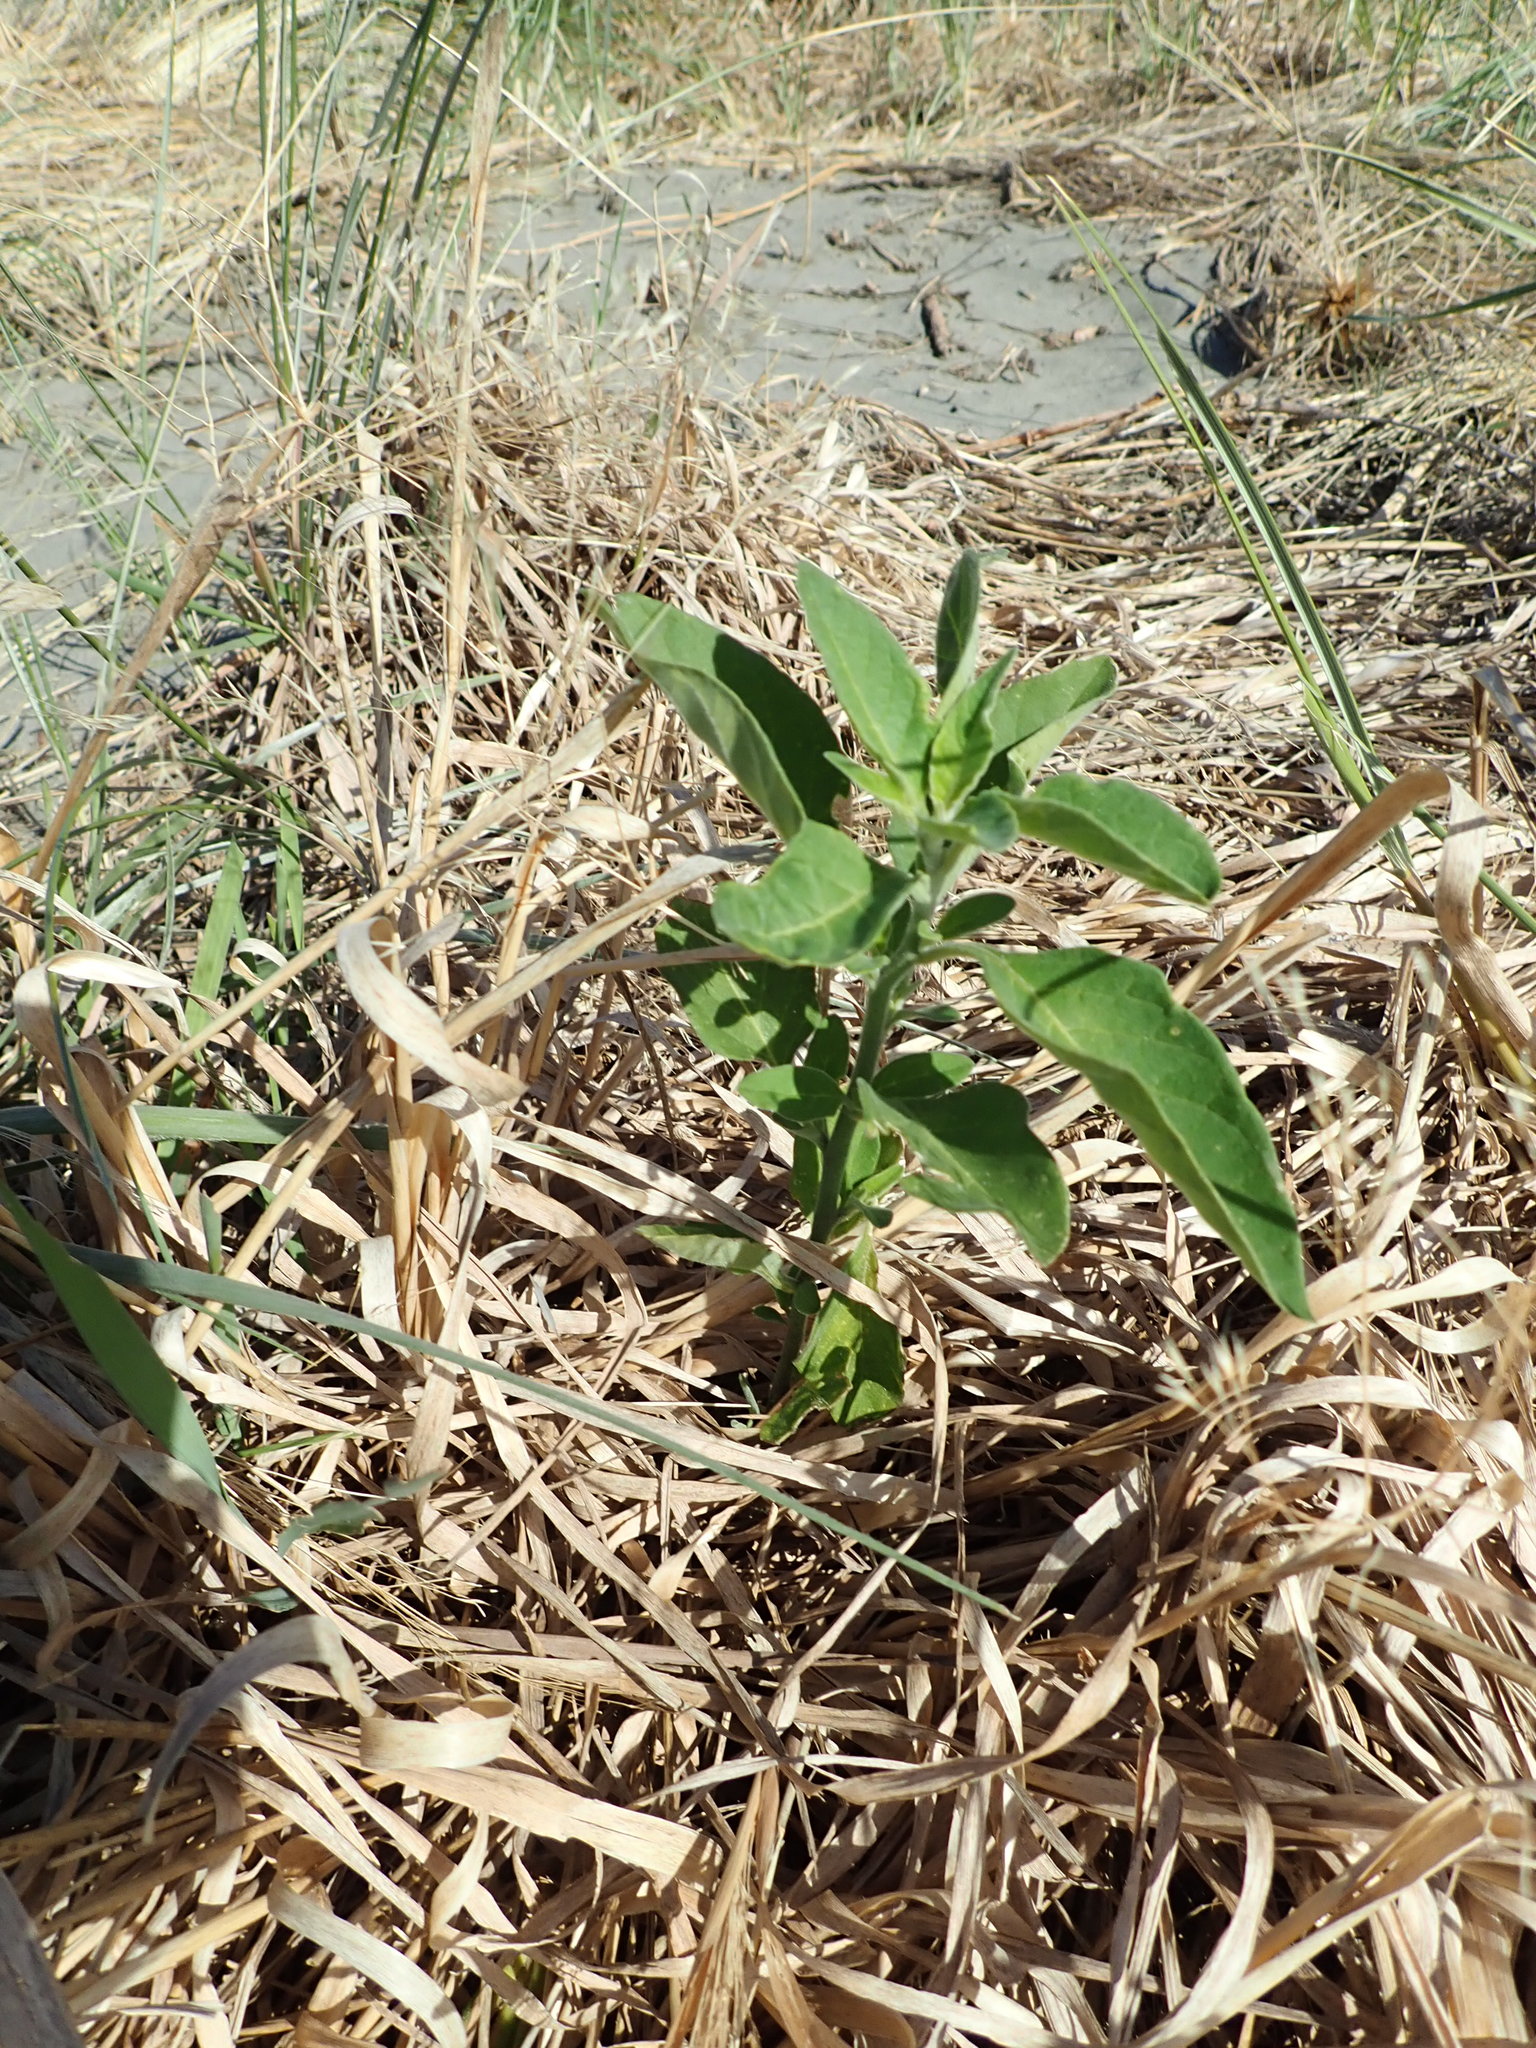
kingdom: Plantae
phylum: Tracheophyta
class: Magnoliopsida
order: Solanales
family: Solanaceae
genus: Solanum
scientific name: Solanum chenopodioides
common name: Tall nightshade
